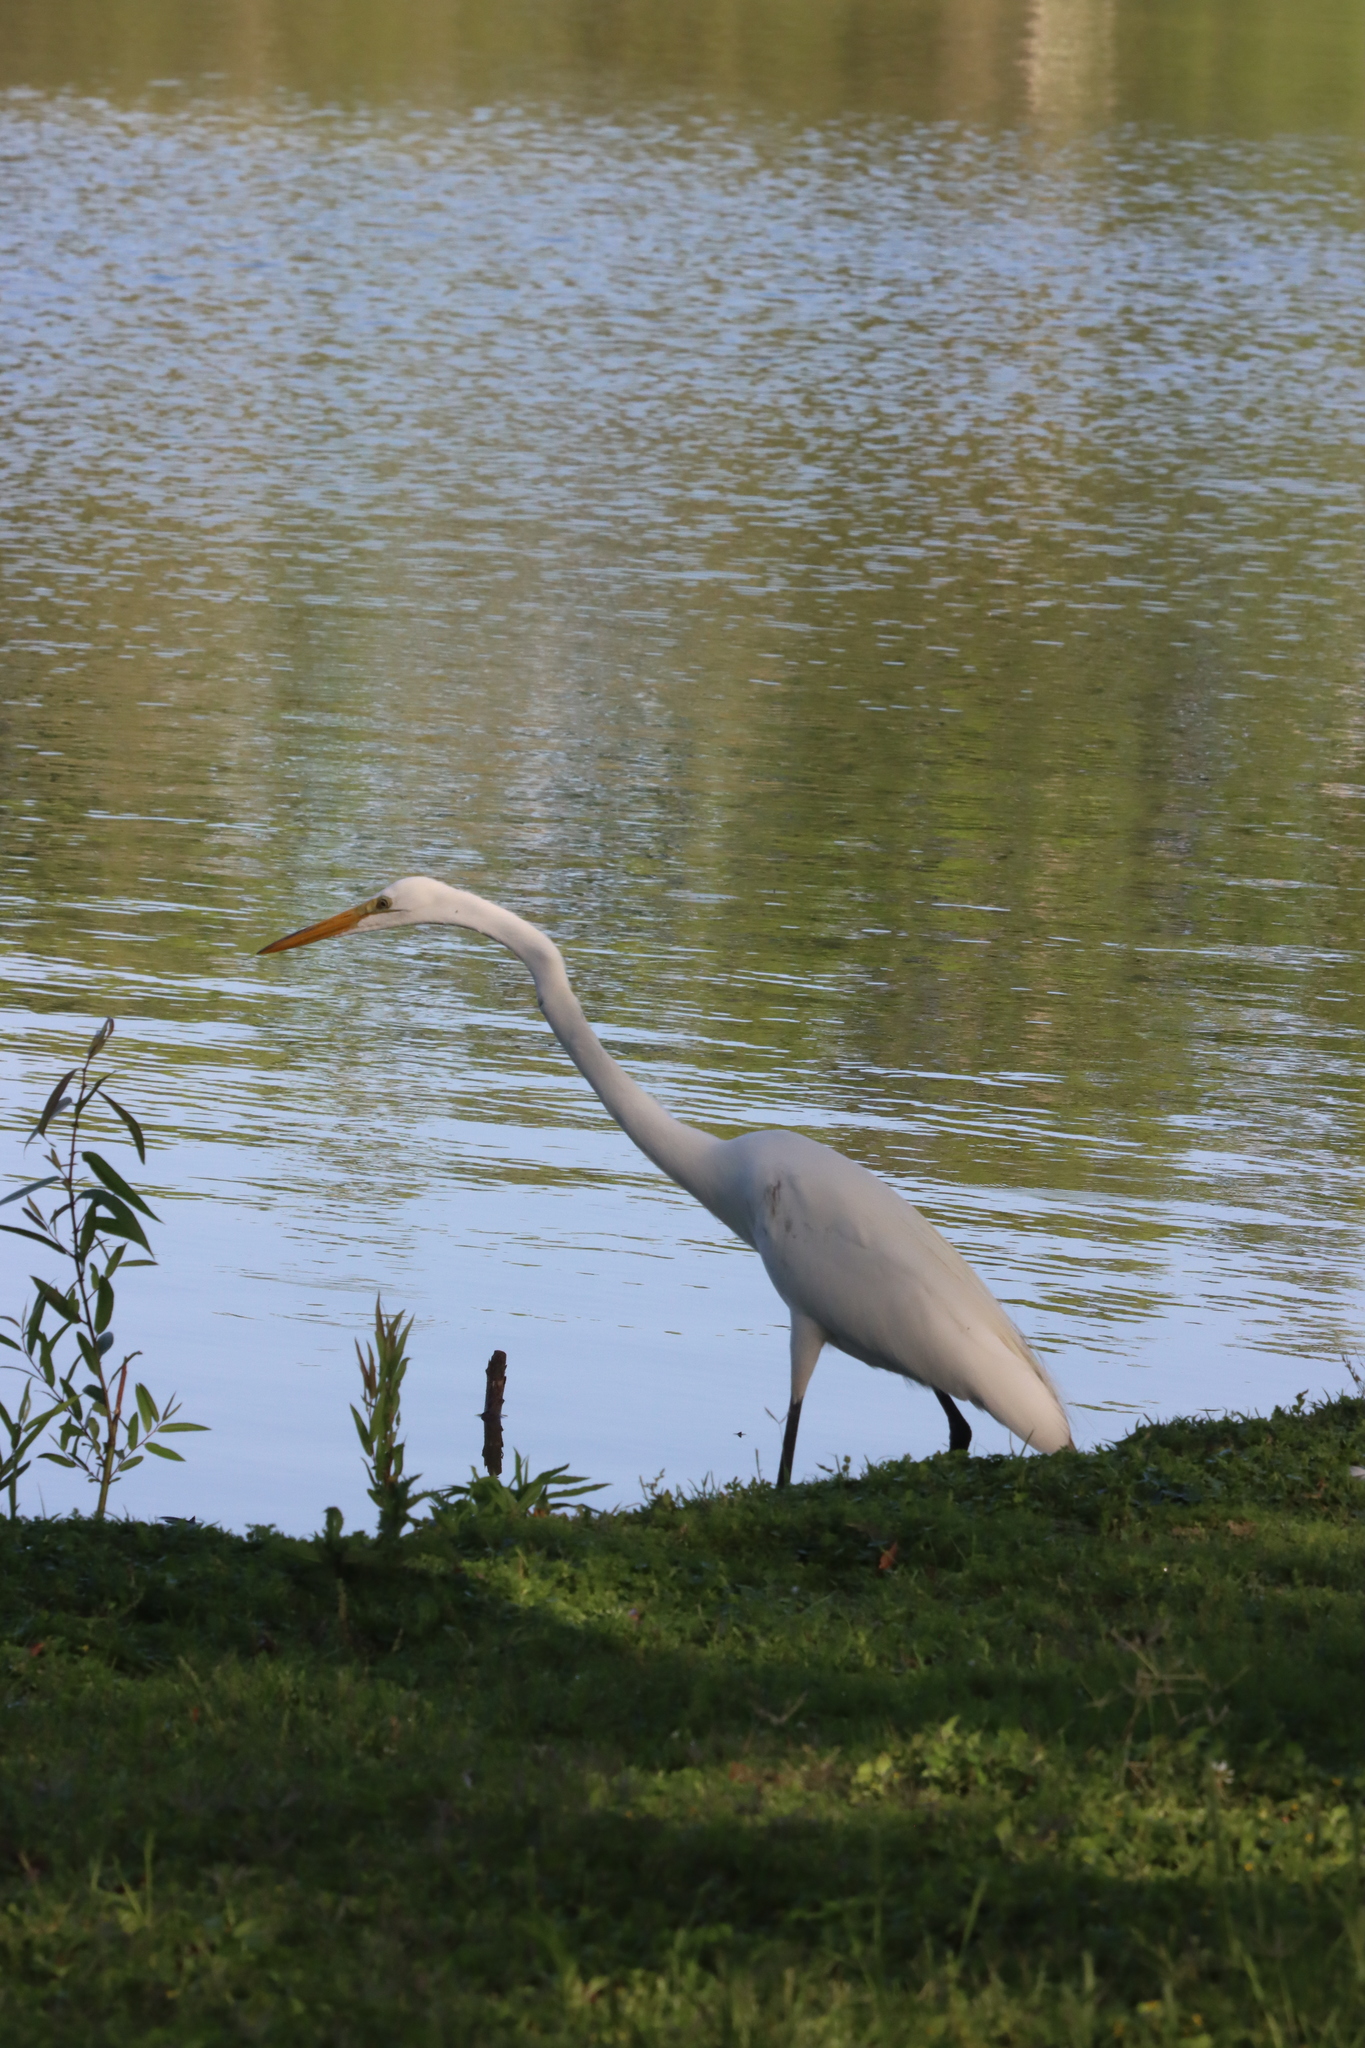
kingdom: Animalia
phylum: Chordata
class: Aves
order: Pelecaniformes
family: Ardeidae
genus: Ardea
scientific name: Ardea alba
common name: Great egret
